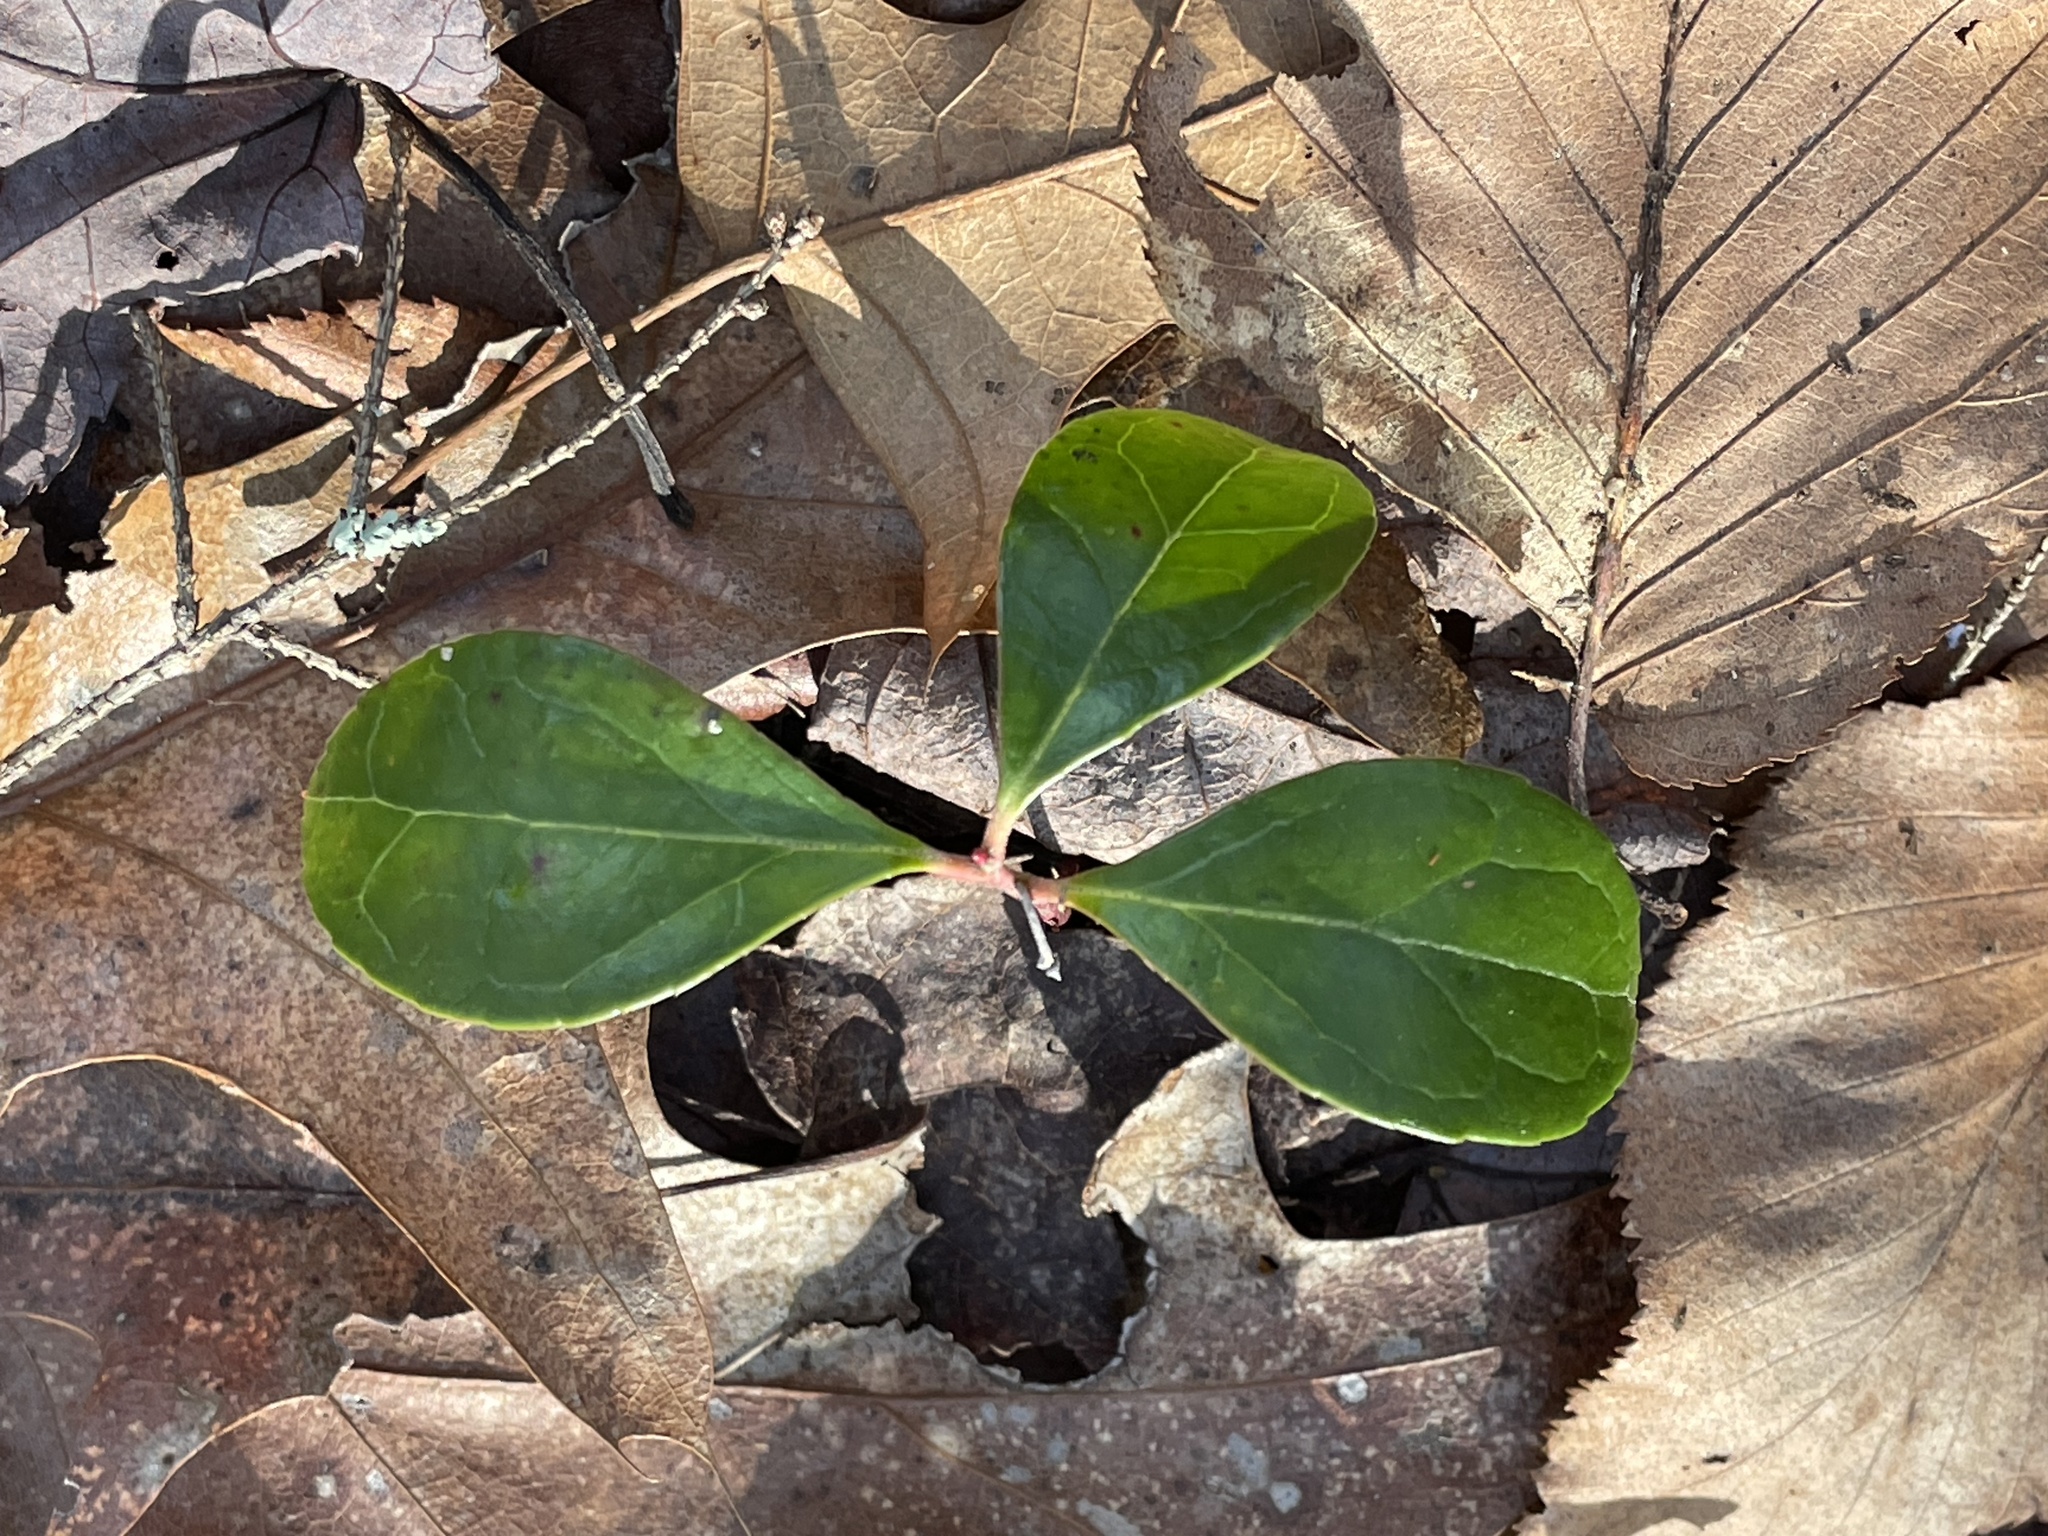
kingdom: Plantae
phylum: Tracheophyta
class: Magnoliopsida
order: Ericales
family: Ericaceae
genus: Gaultheria
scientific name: Gaultheria procumbens
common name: Checkerberry
